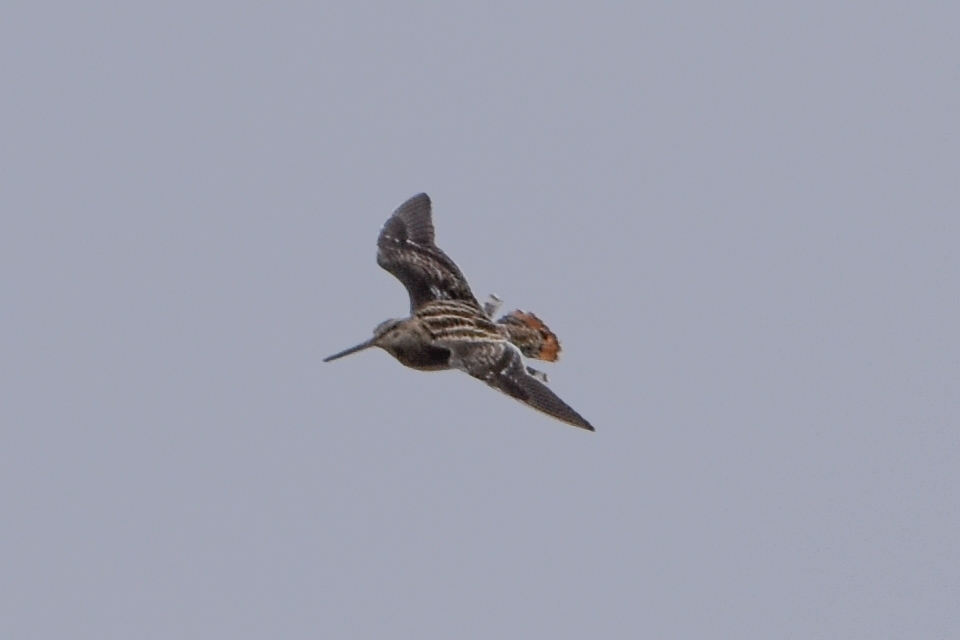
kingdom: Animalia
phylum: Chordata
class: Aves
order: Charadriiformes
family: Scolopacidae
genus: Gallinago
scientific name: Gallinago gallinago
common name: Common snipe
